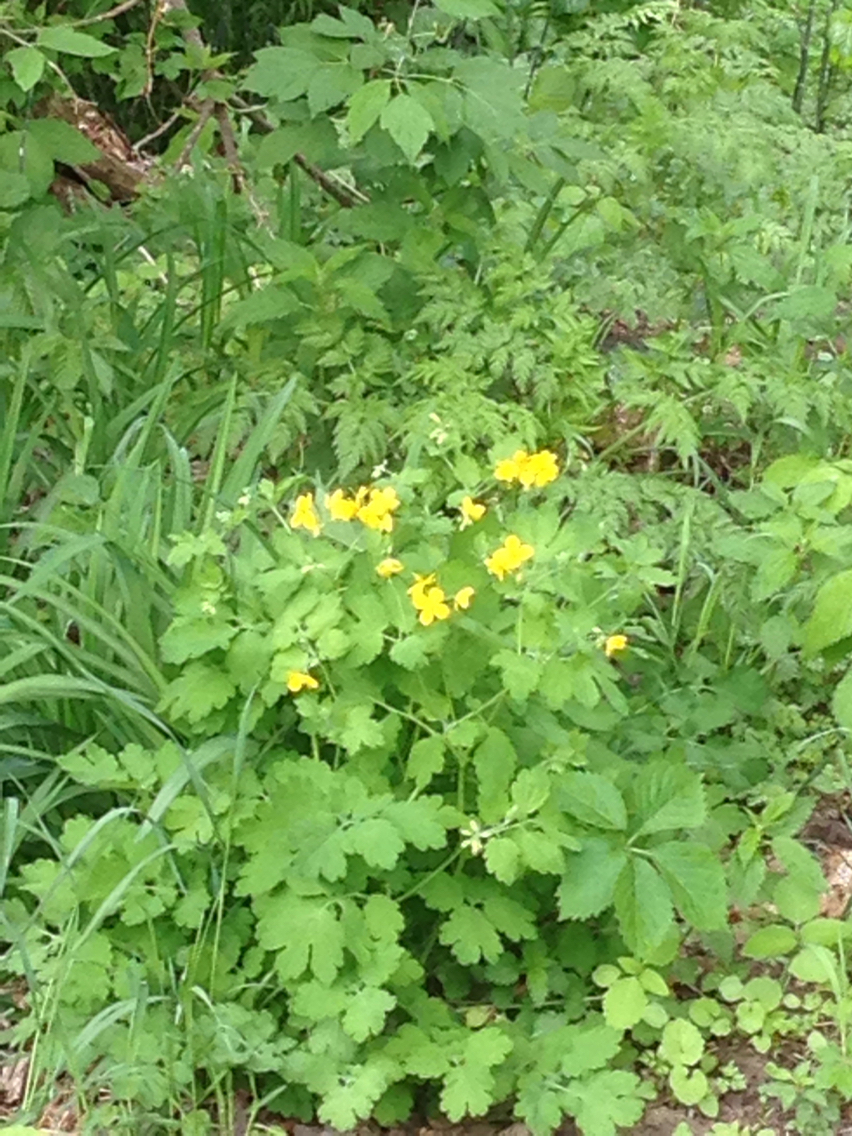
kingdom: Plantae
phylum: Tracheophyta
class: Magnoliopsida
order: Ranunculales
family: Papaveraceae
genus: Chelidonium
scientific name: Chelidonium majus
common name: Greater celandine
